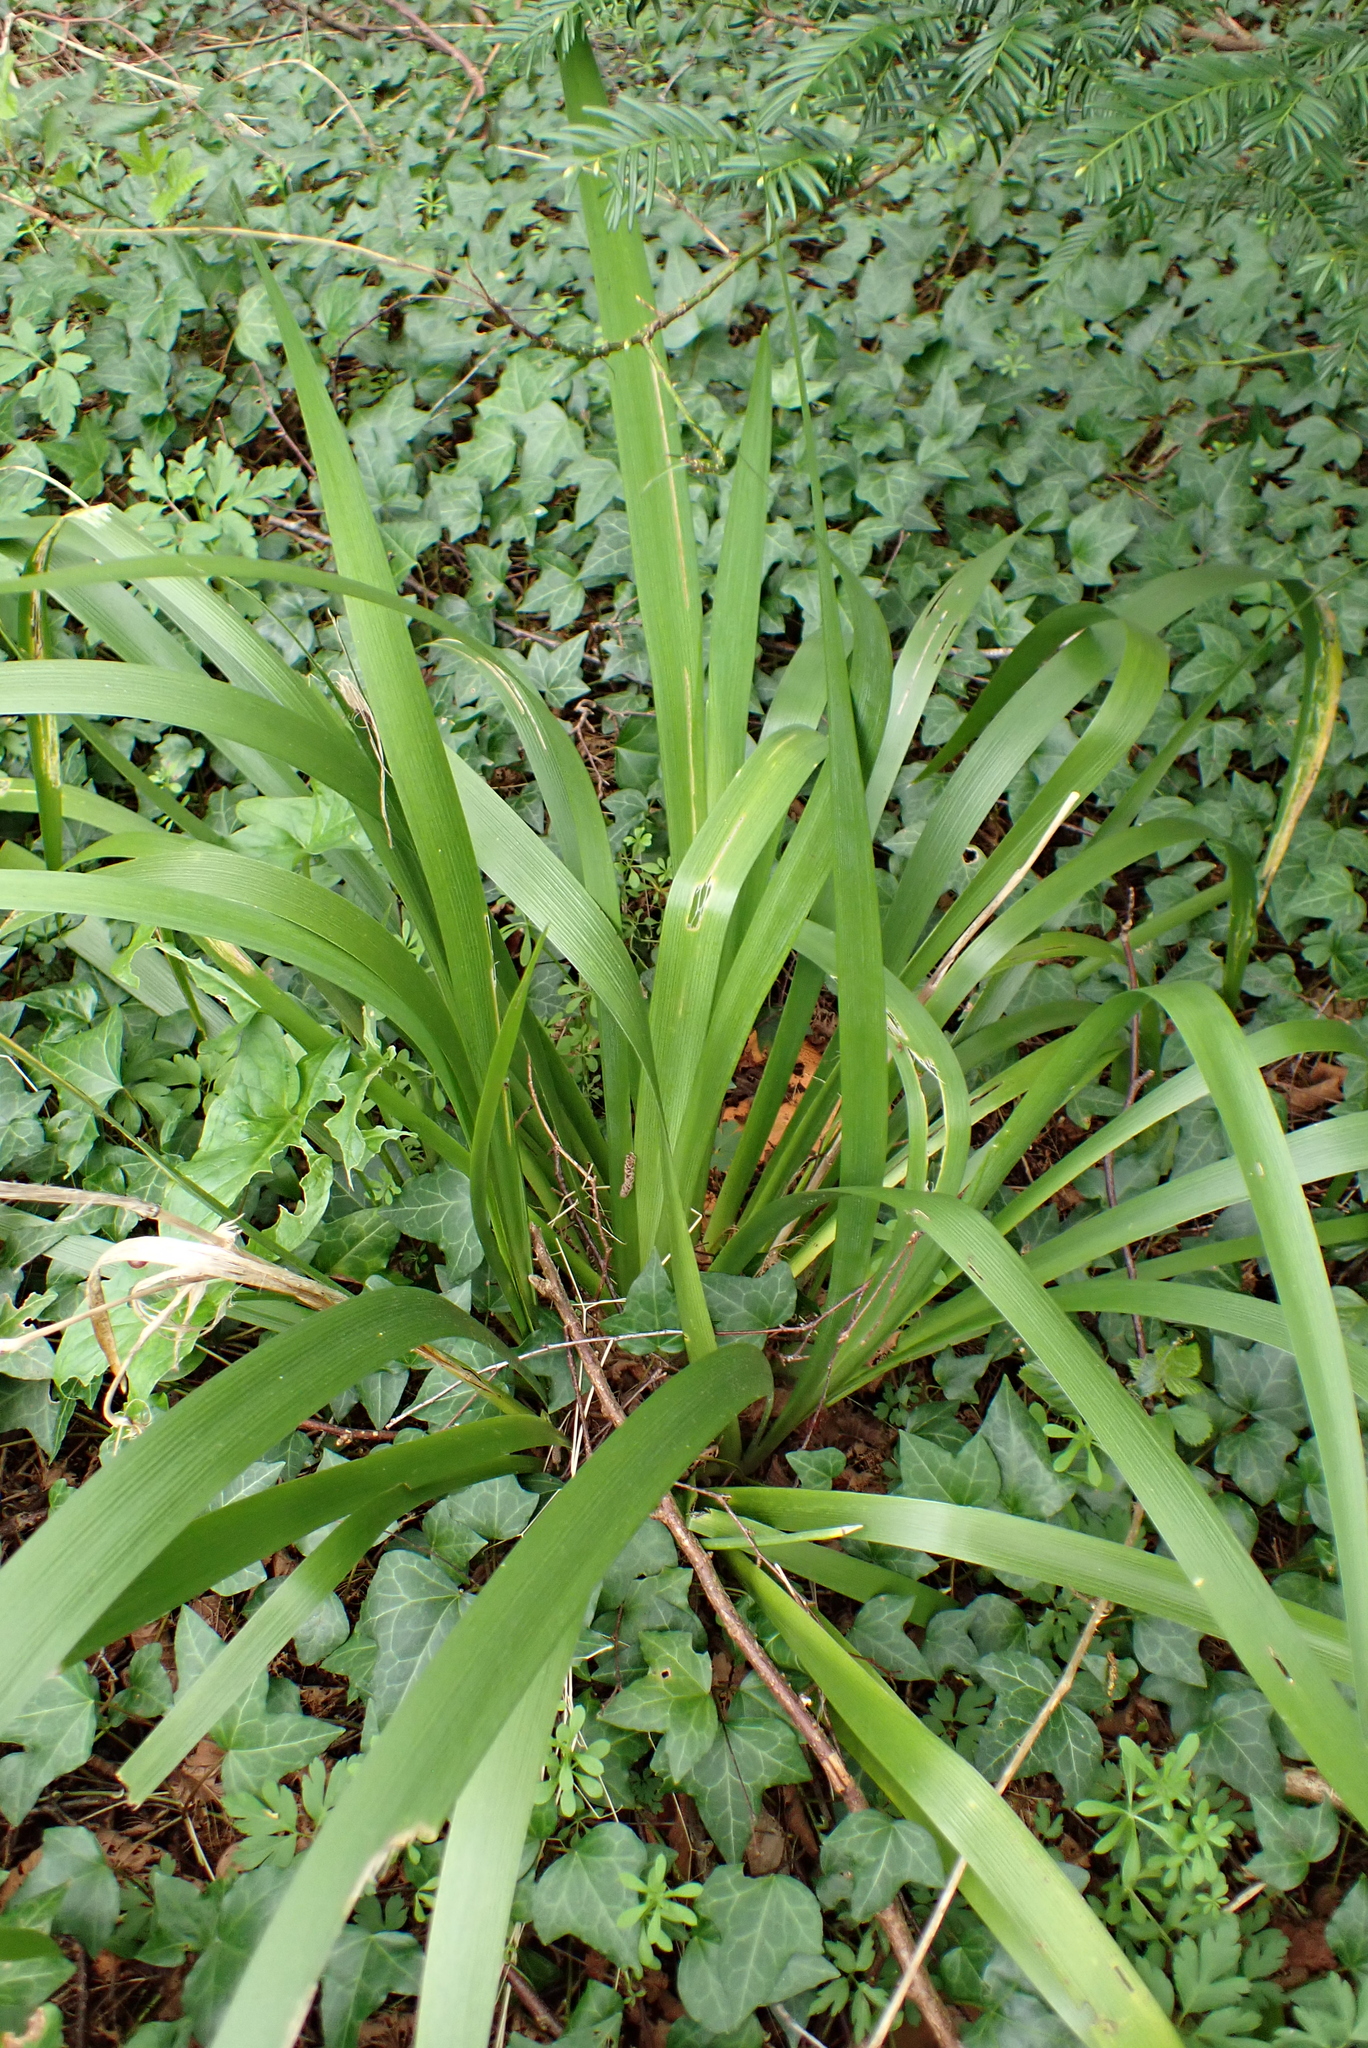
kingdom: Plantae
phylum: Tracheophyta
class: Liliopsida
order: Asparagales
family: Iridaceae
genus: Iris
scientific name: Iris foetidissima
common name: Stinking iris
